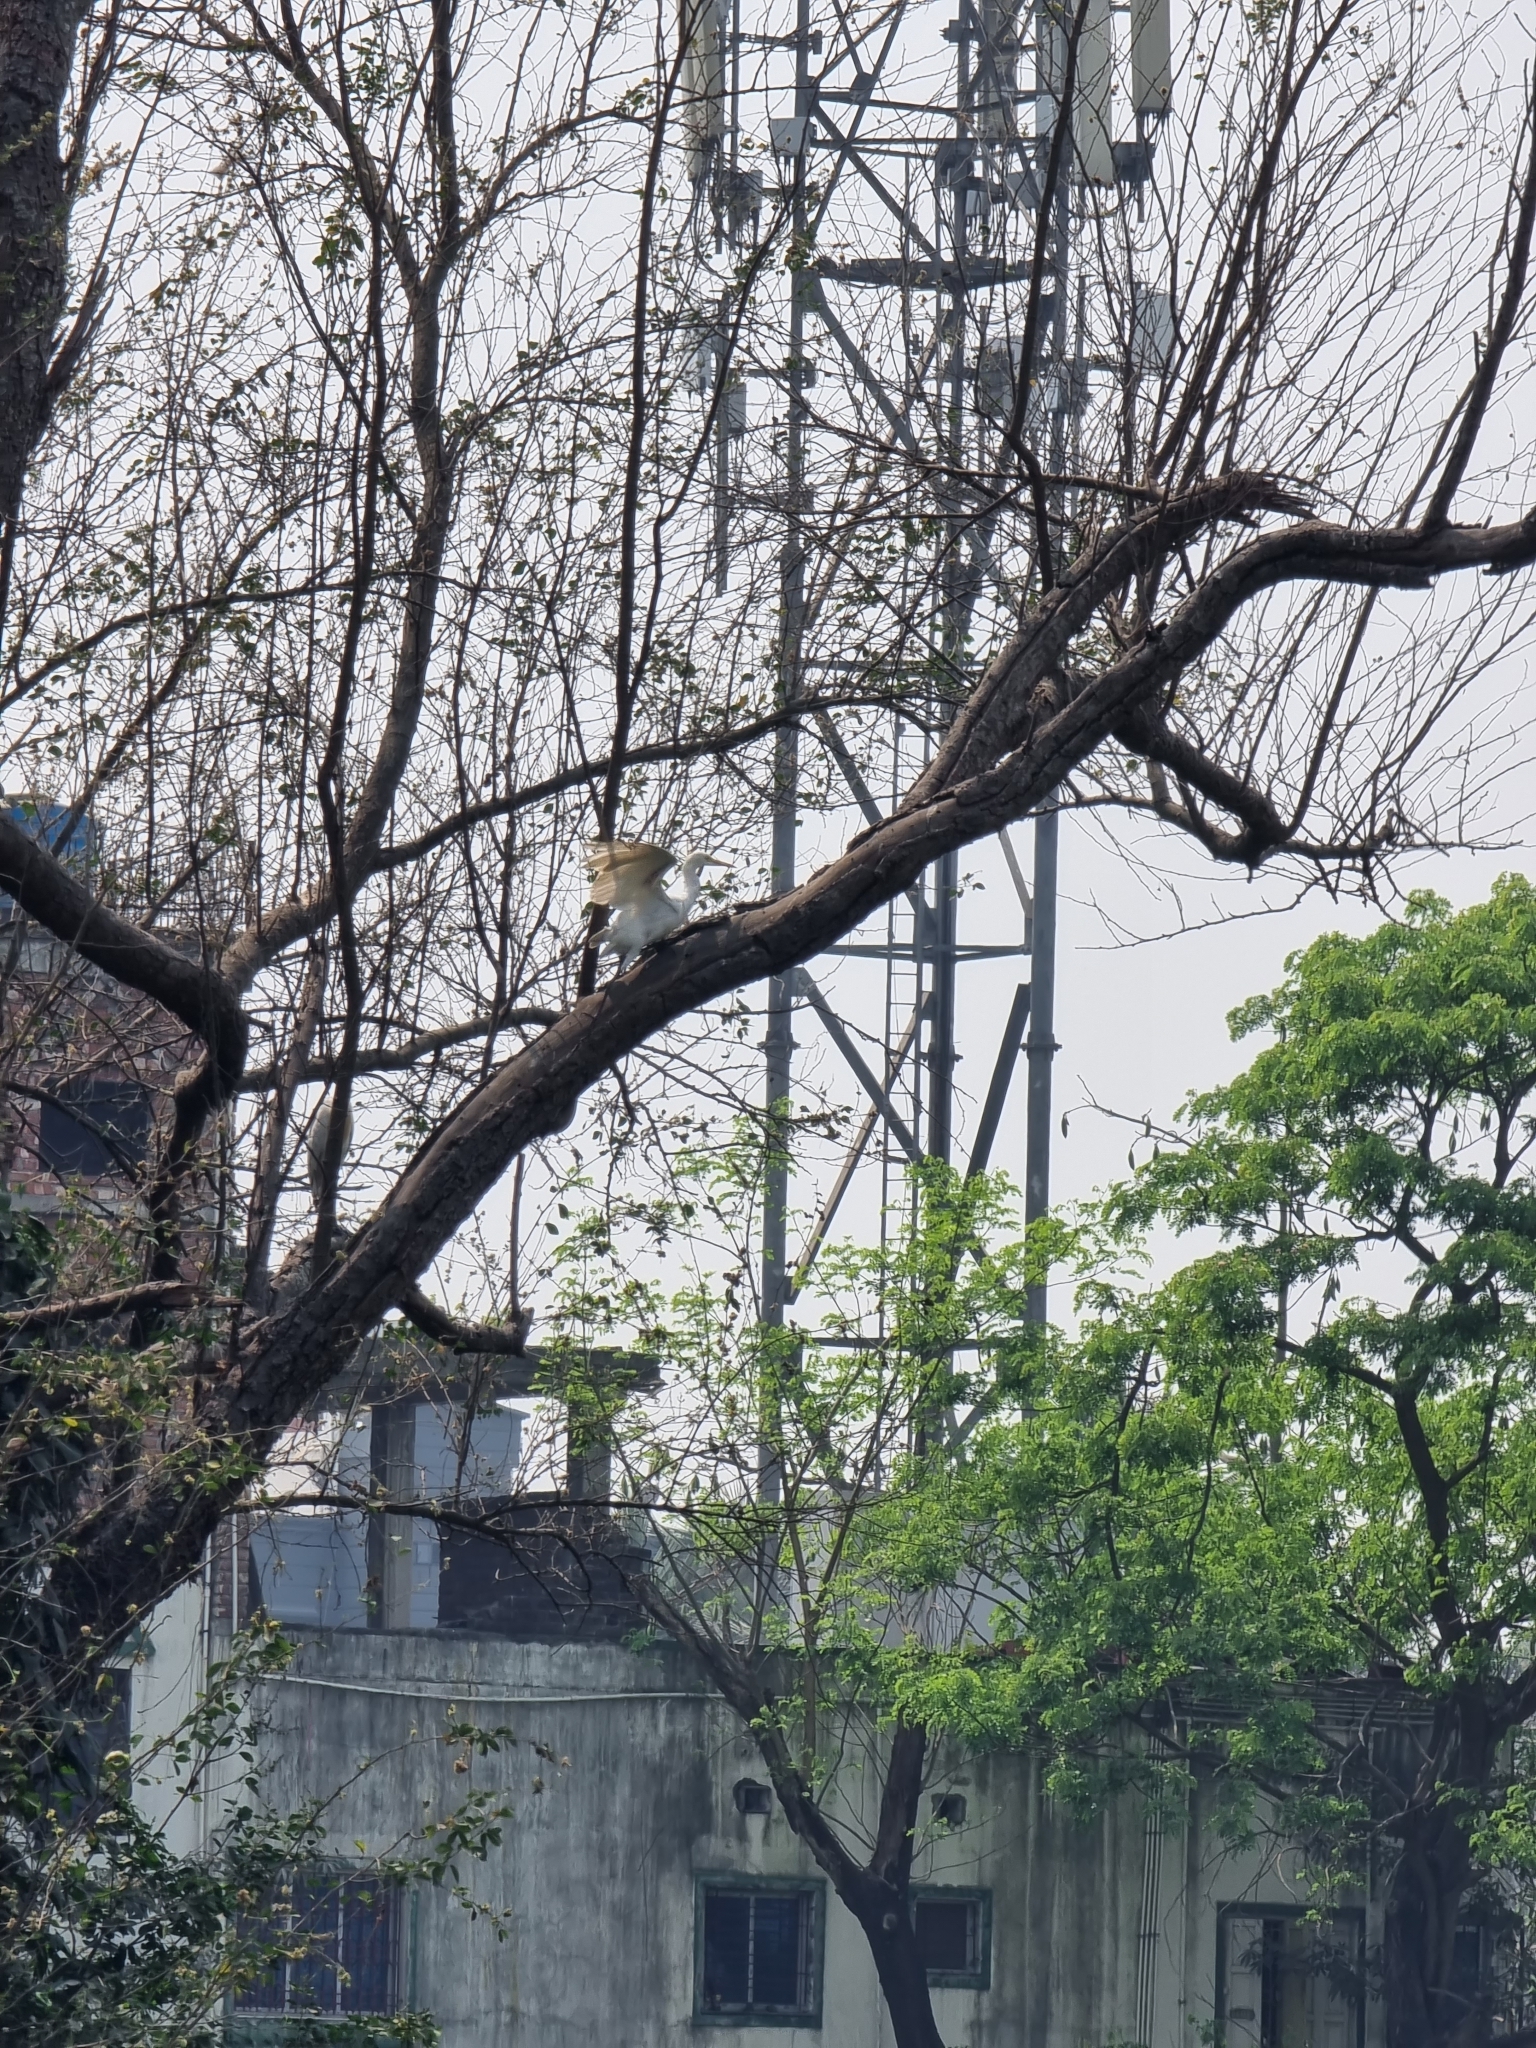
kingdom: Animalia
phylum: Chordata
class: Aves
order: Pelecaniformes
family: Ardeidae
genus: Bubulcus
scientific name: Bubulcus coromandus
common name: Eastern cattle egret
